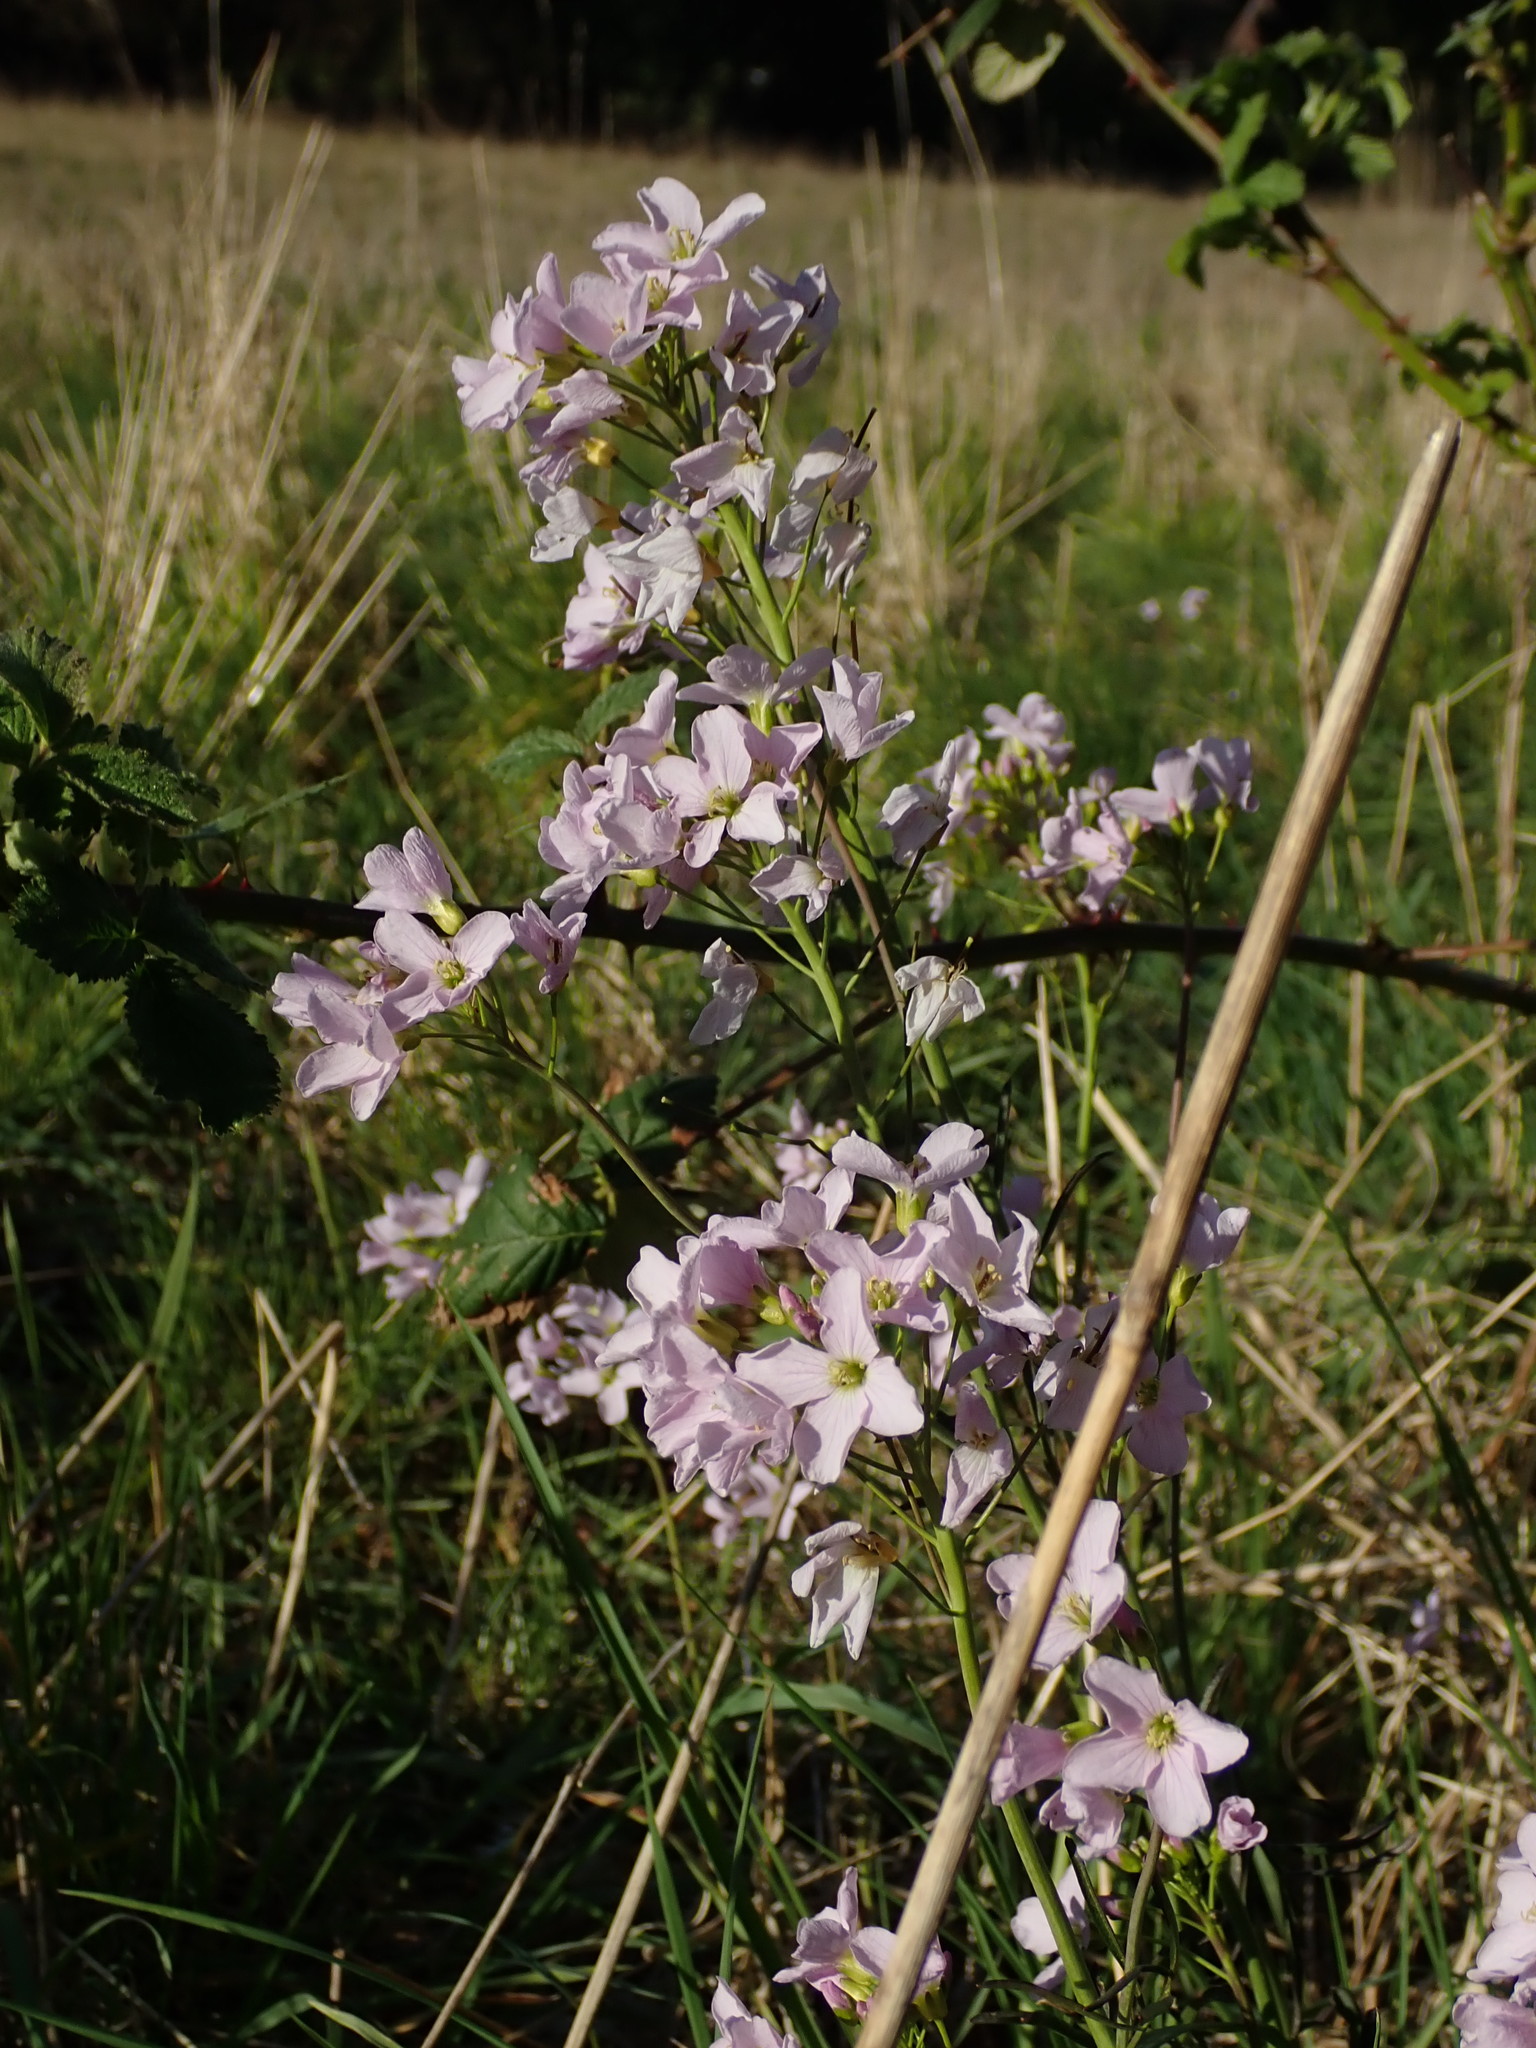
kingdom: Plantae
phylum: Tracheophyta
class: Magnoliopsida
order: Brassicales
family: Brassicaceae
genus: Cardamine
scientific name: Cardamine pratensis
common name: Cuckoo flower
